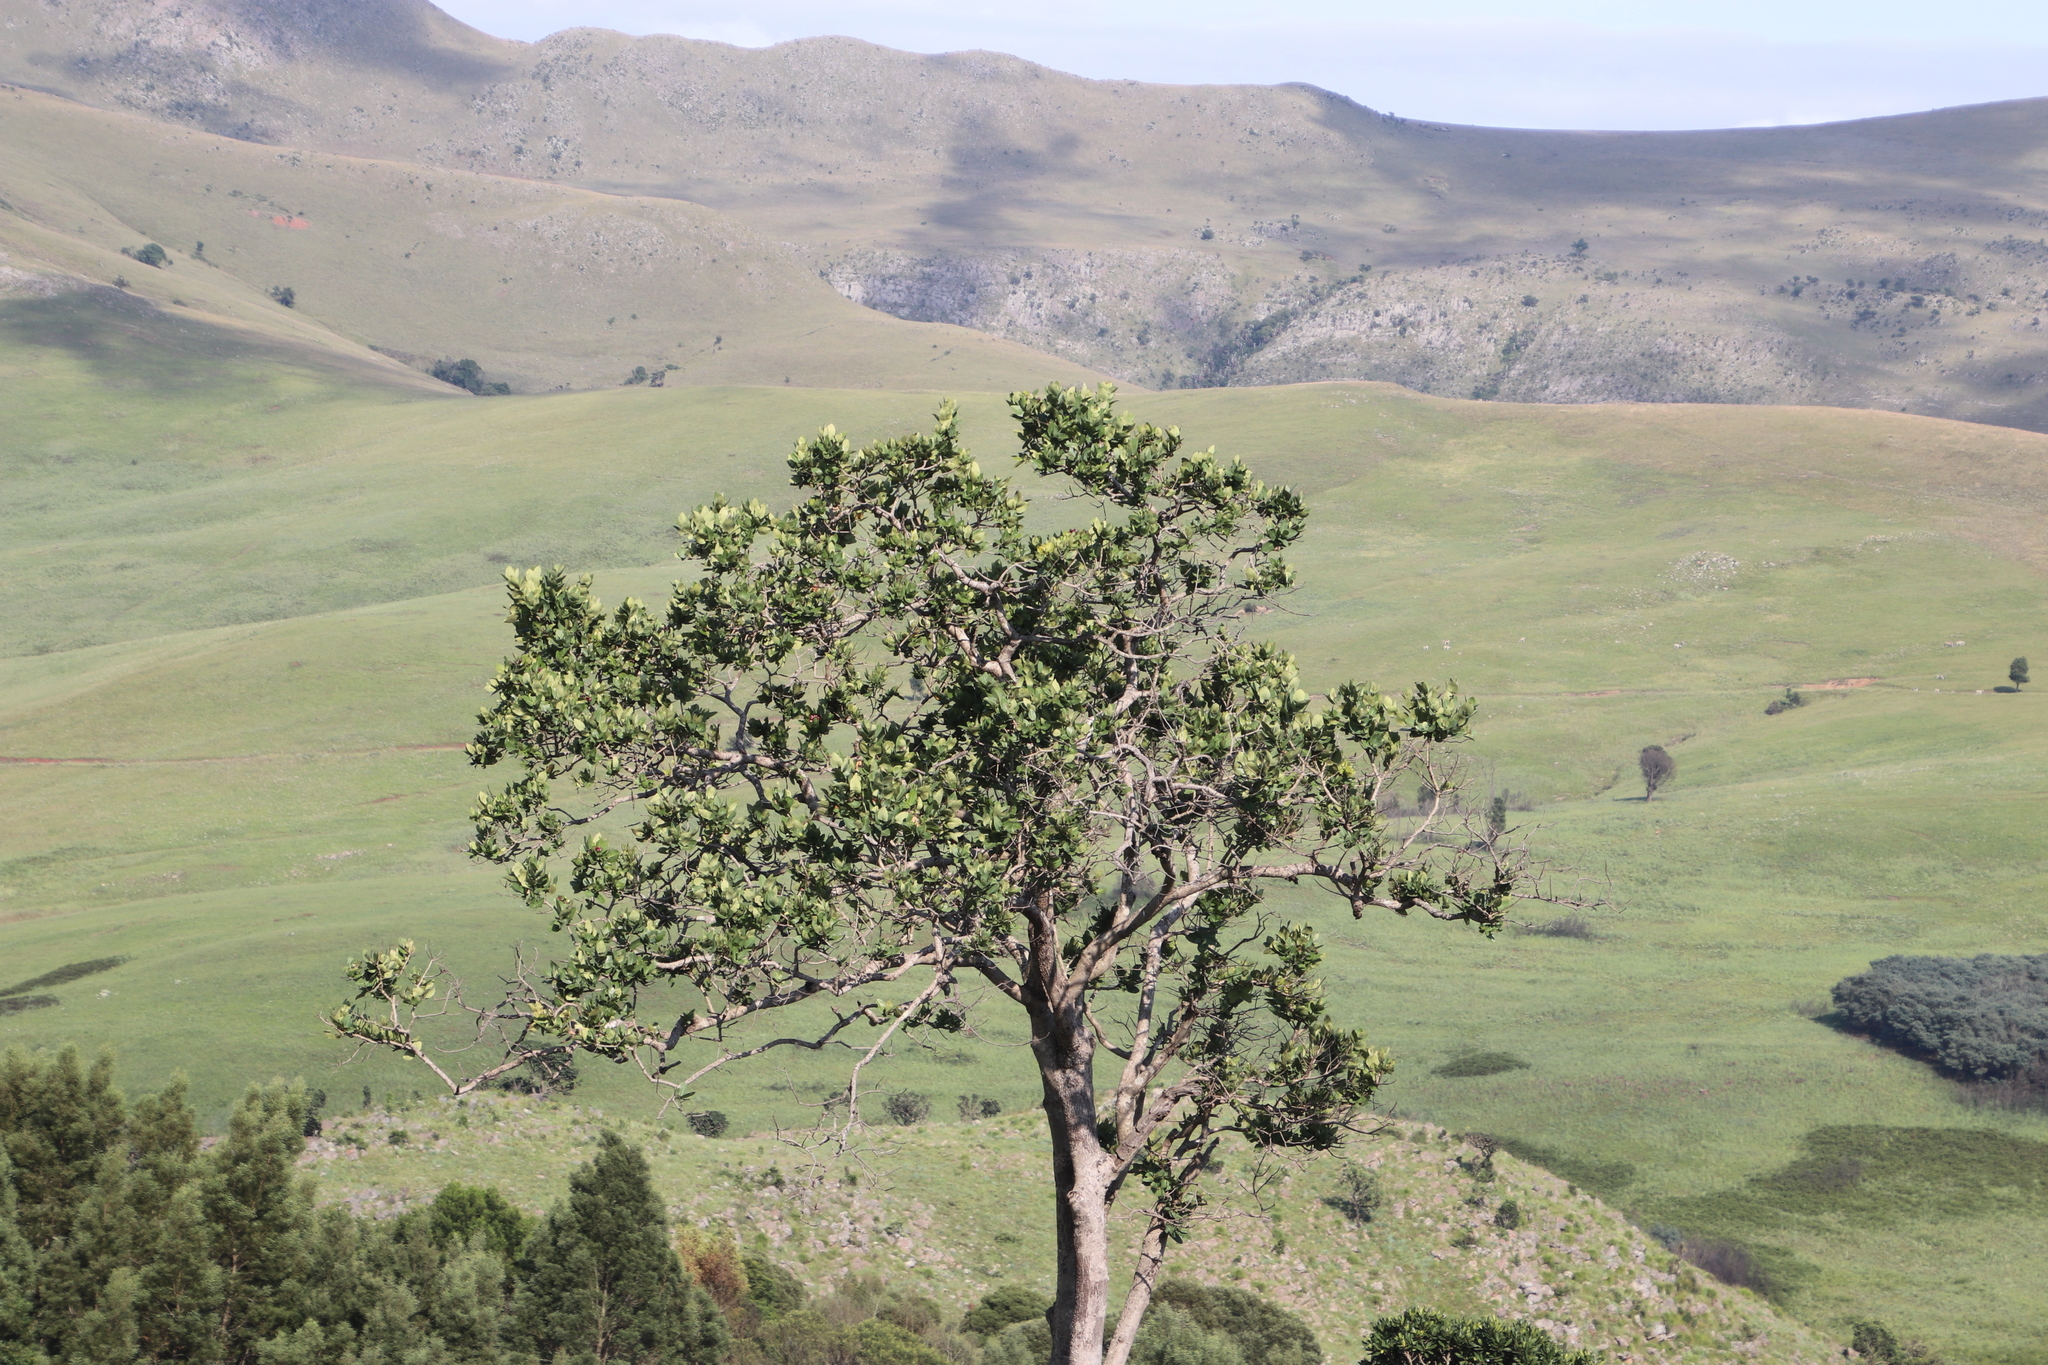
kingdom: Plantae
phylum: Tracheophyta
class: Magnoliopsida
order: Myrtales
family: Myrtaceae
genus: Syzygium
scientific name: Syzygium cordatum
